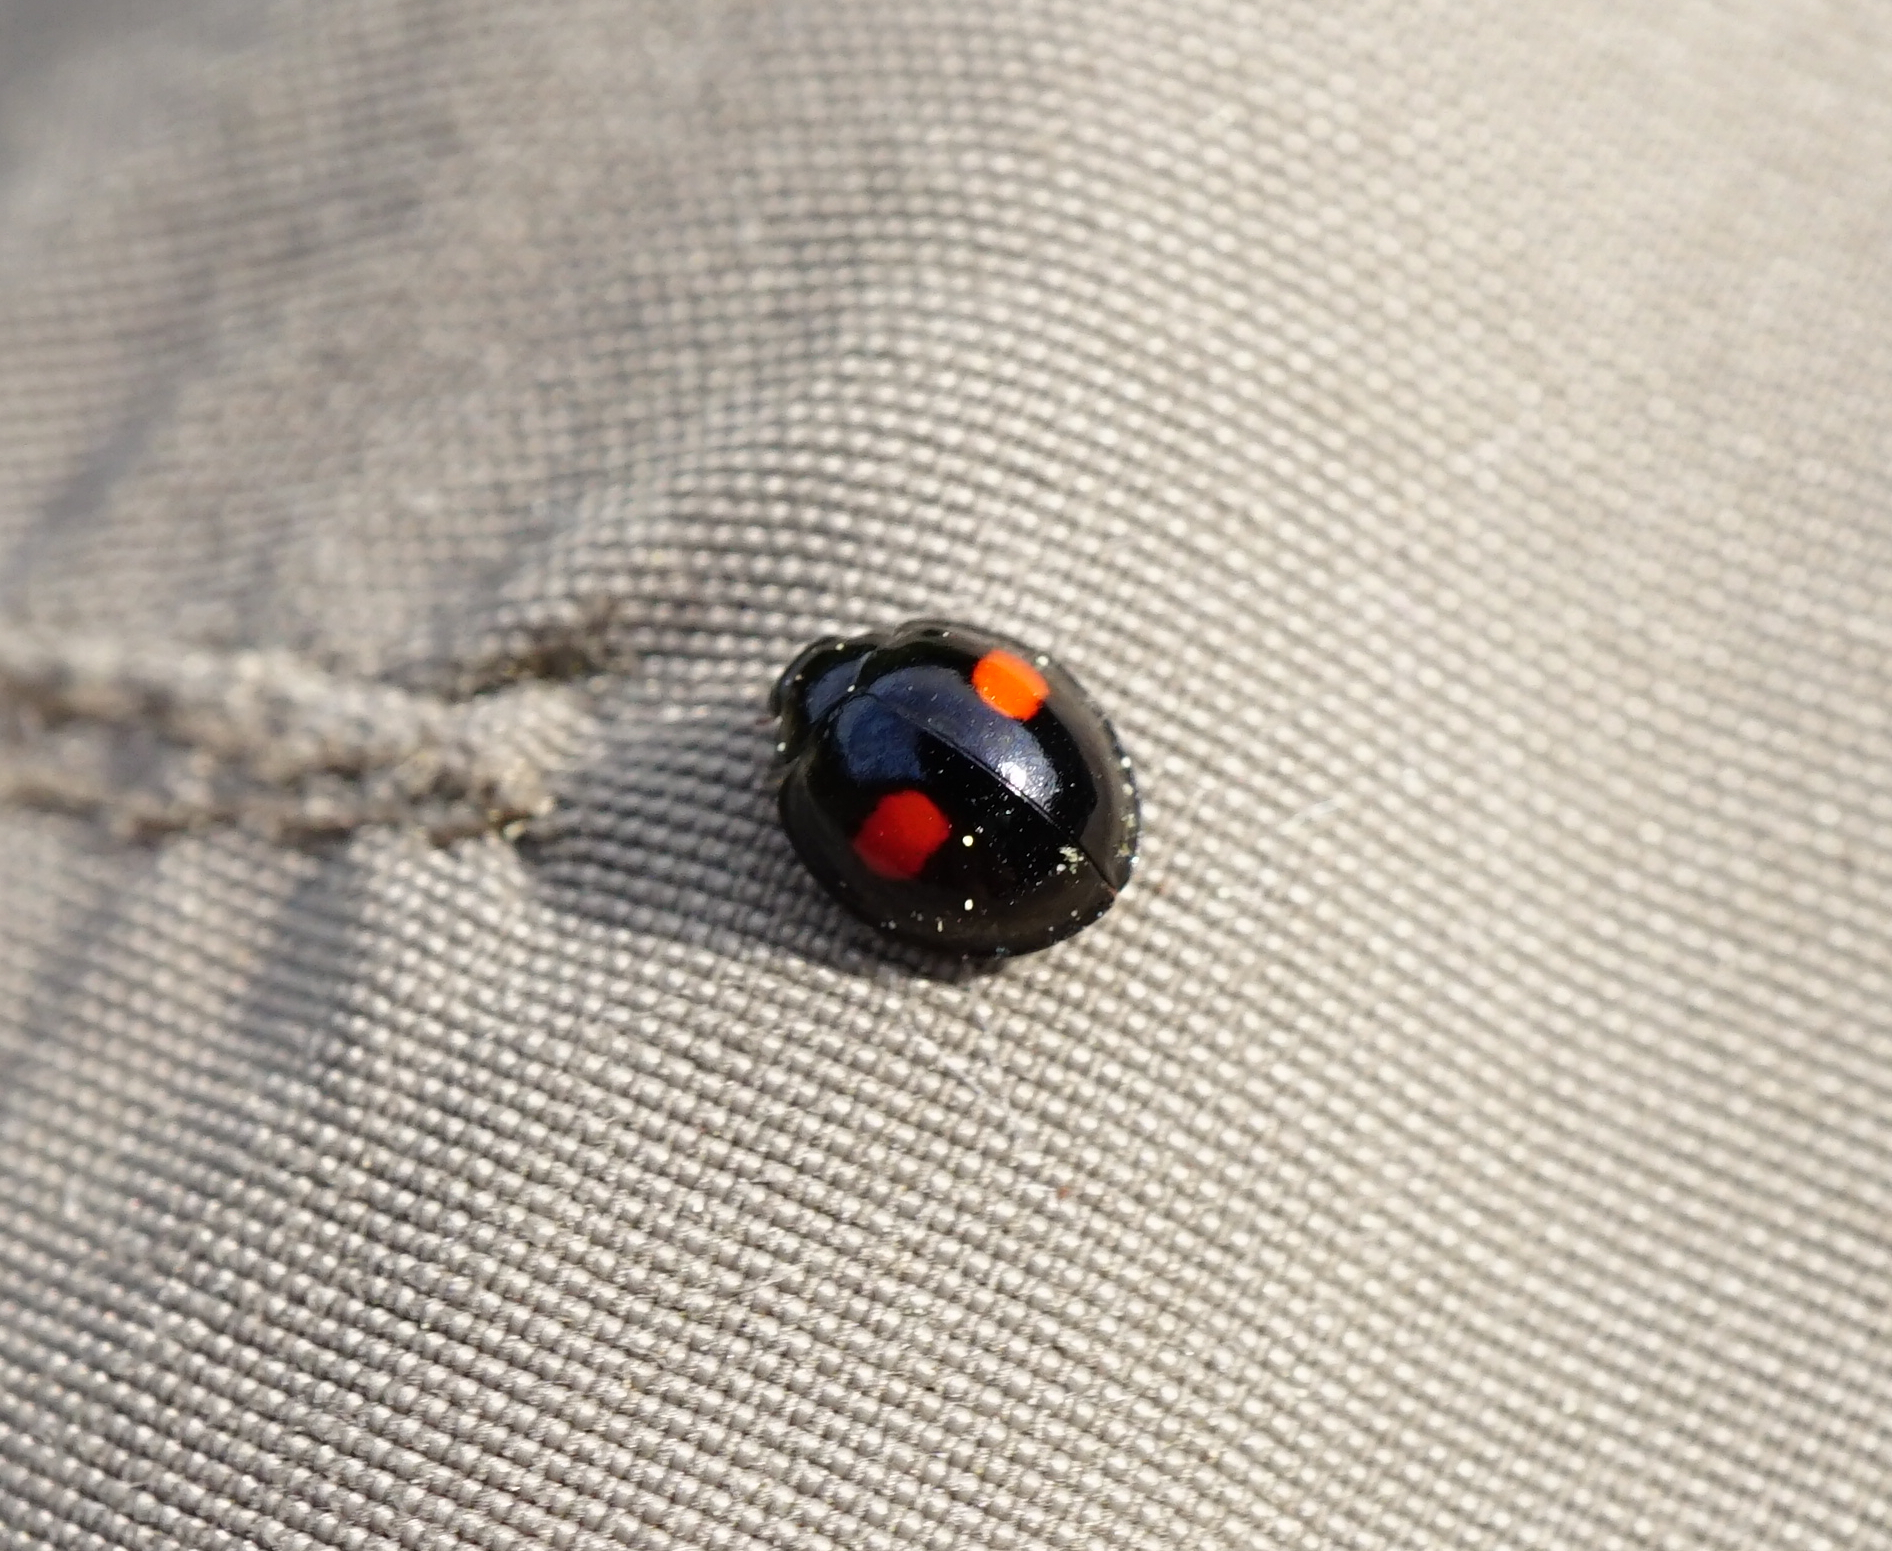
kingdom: Animalia
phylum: Arthropoda
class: Insecta
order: Coleoptera
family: Coccinellidae
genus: Chilocorus
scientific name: Chilocorus renipustulatus
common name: Kidney-spot ladybird
